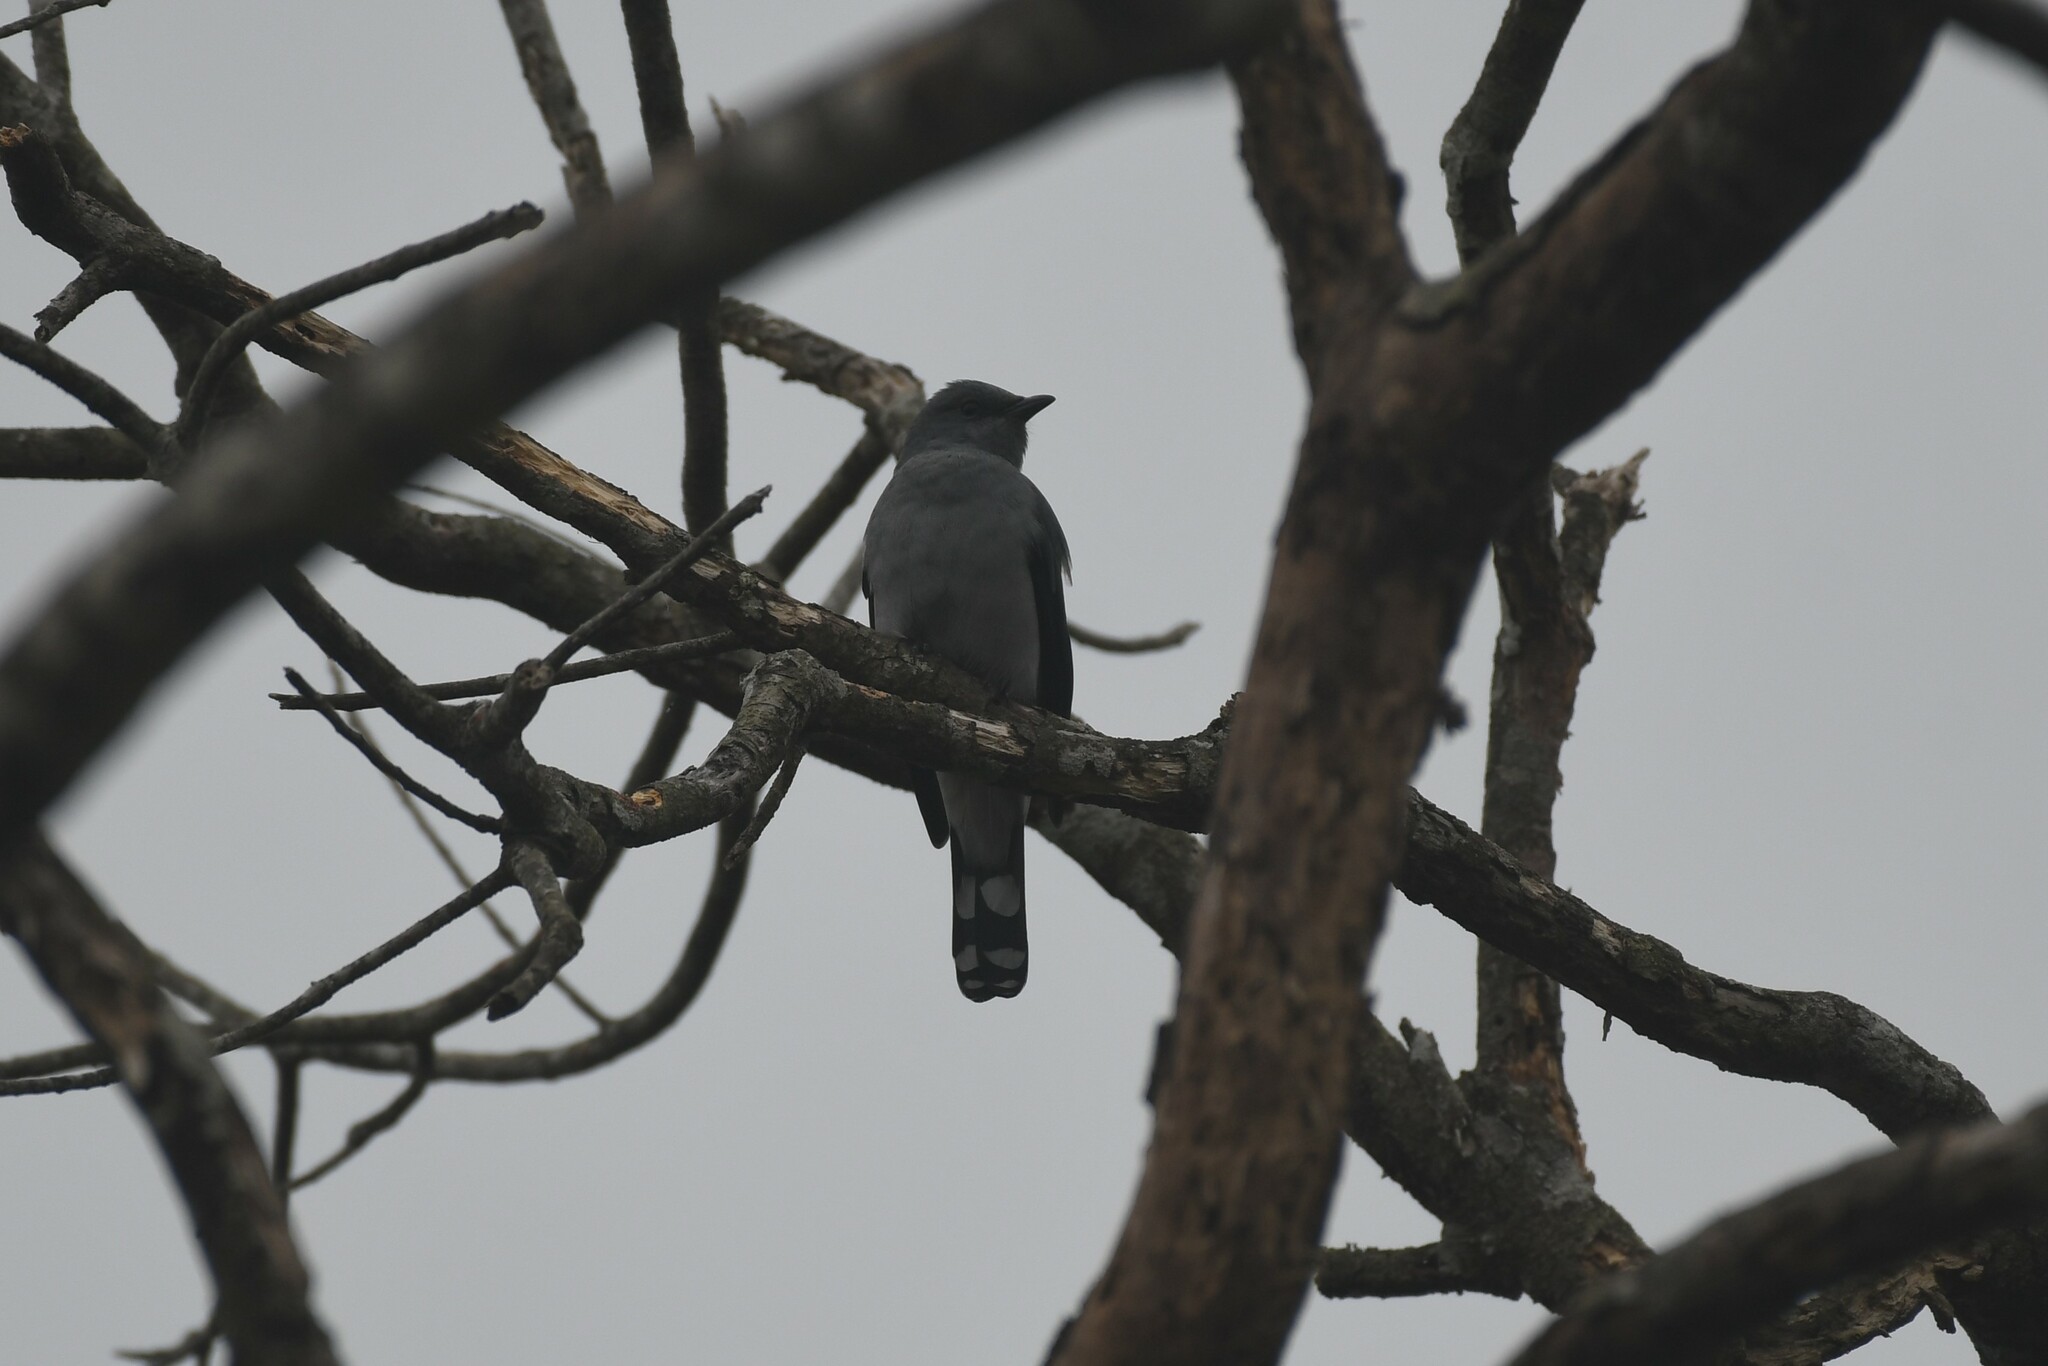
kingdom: Animalia
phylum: Chordata
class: Aves
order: Passeriformes
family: Campephagidae
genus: Coracina
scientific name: Coracina melaschistos
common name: Black-winged cuckooshrike
